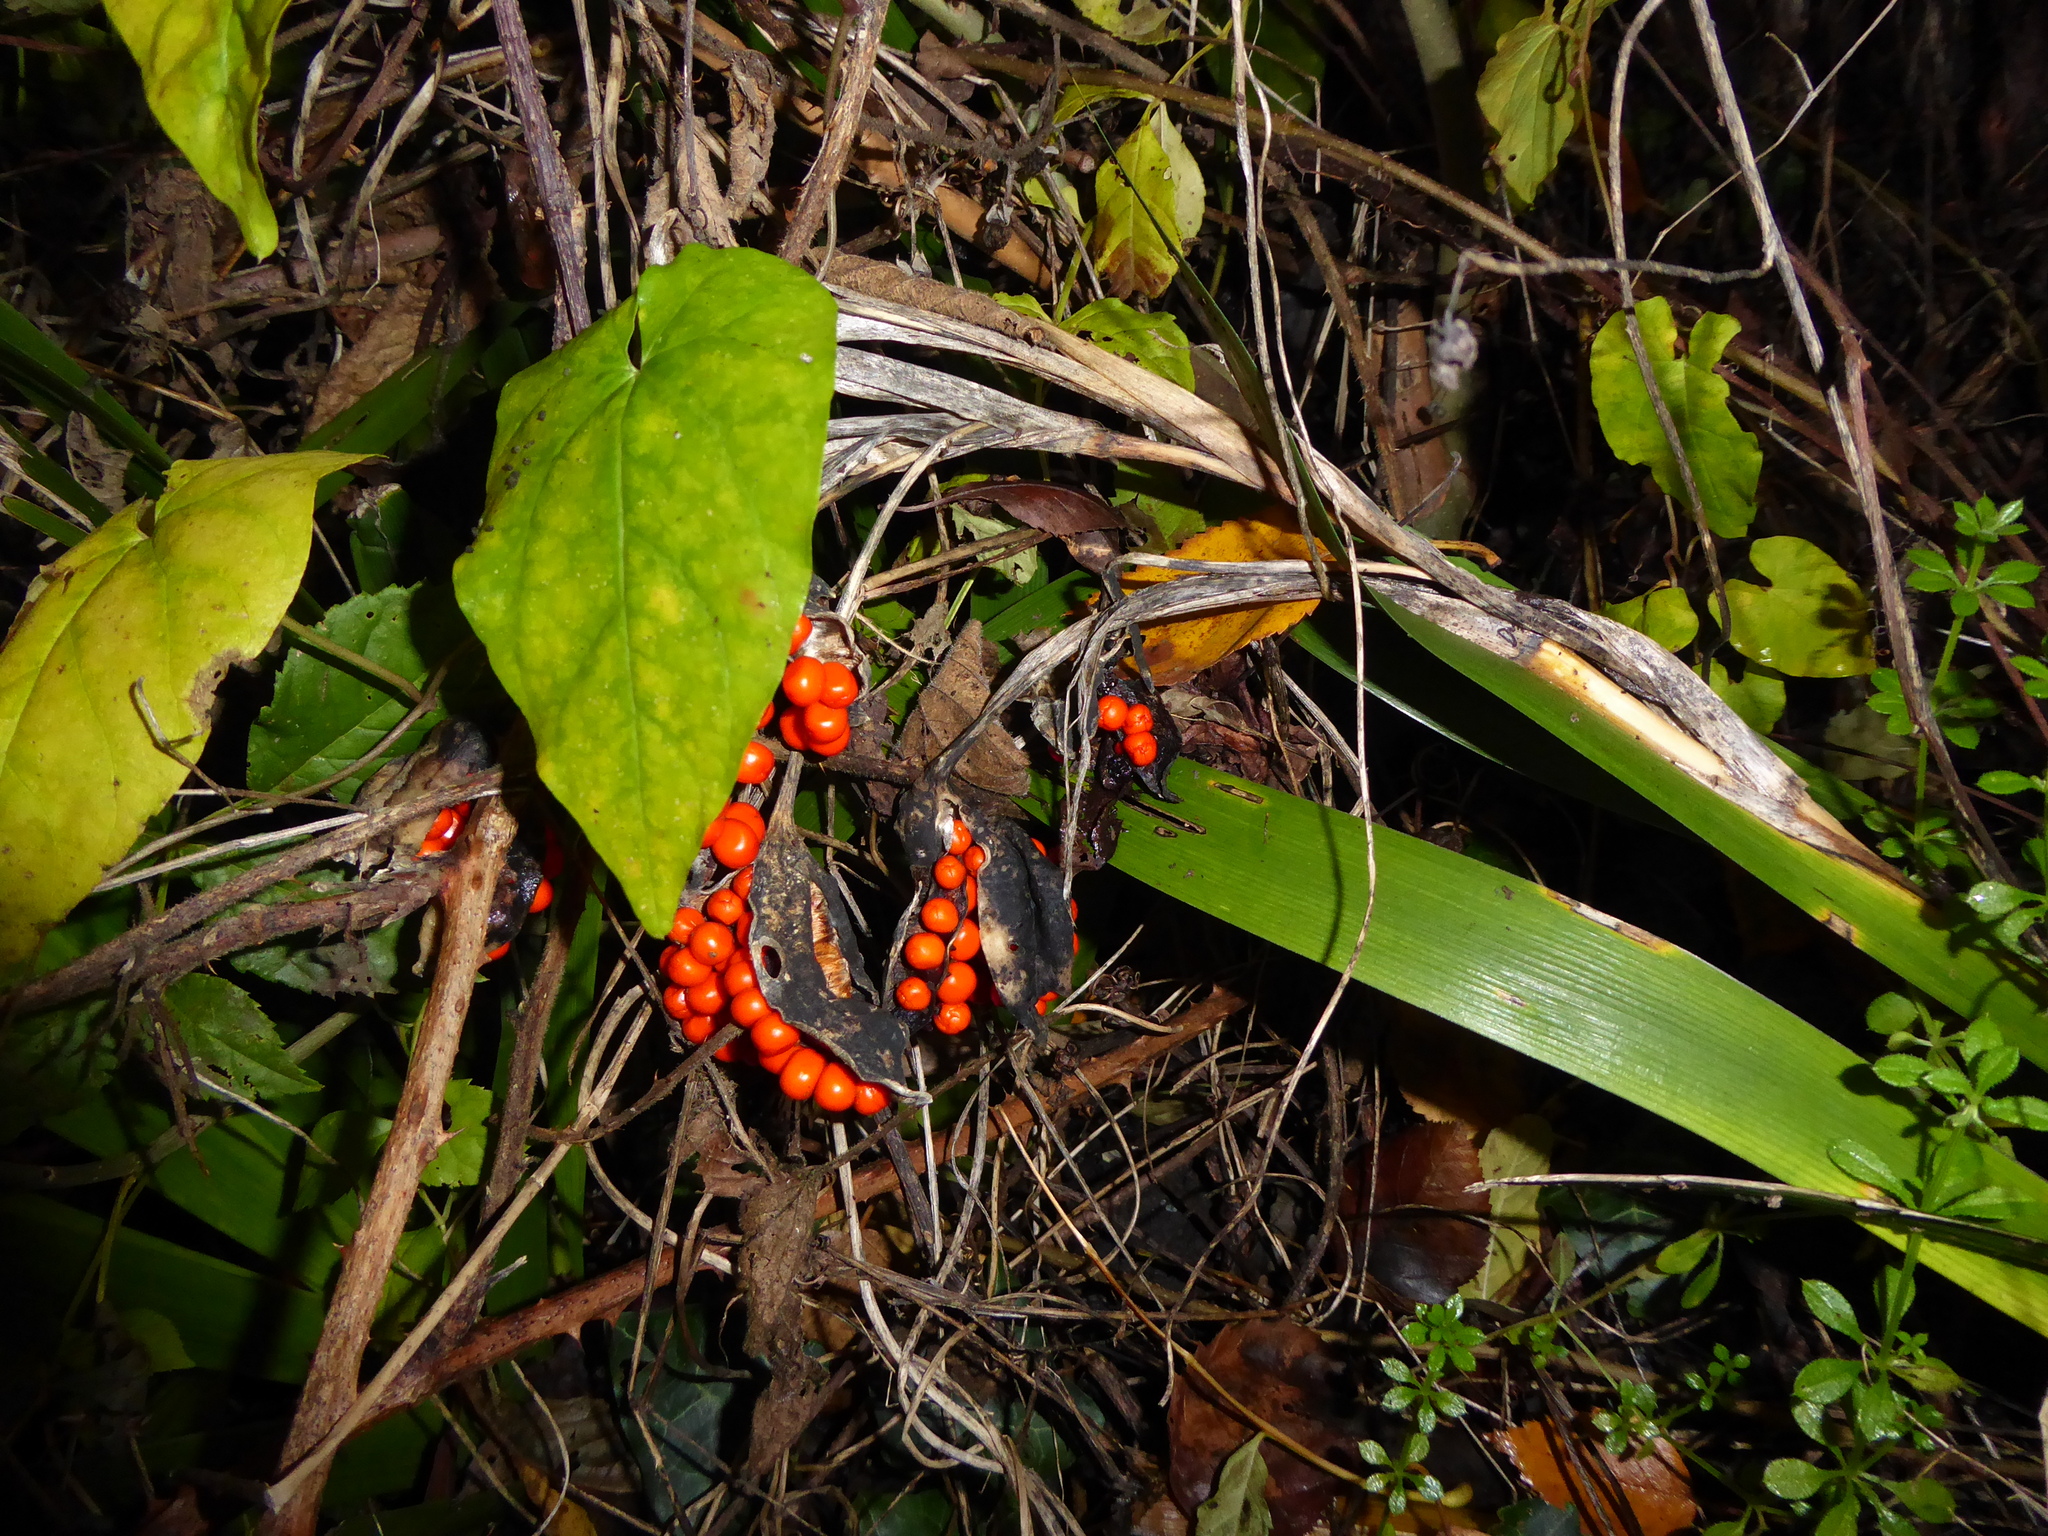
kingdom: Plantae
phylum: Tracheophyta
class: Liliopsida
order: Asparagales
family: Iridaceae
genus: Iris
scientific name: Iris foetidissima
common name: Stinking iris
